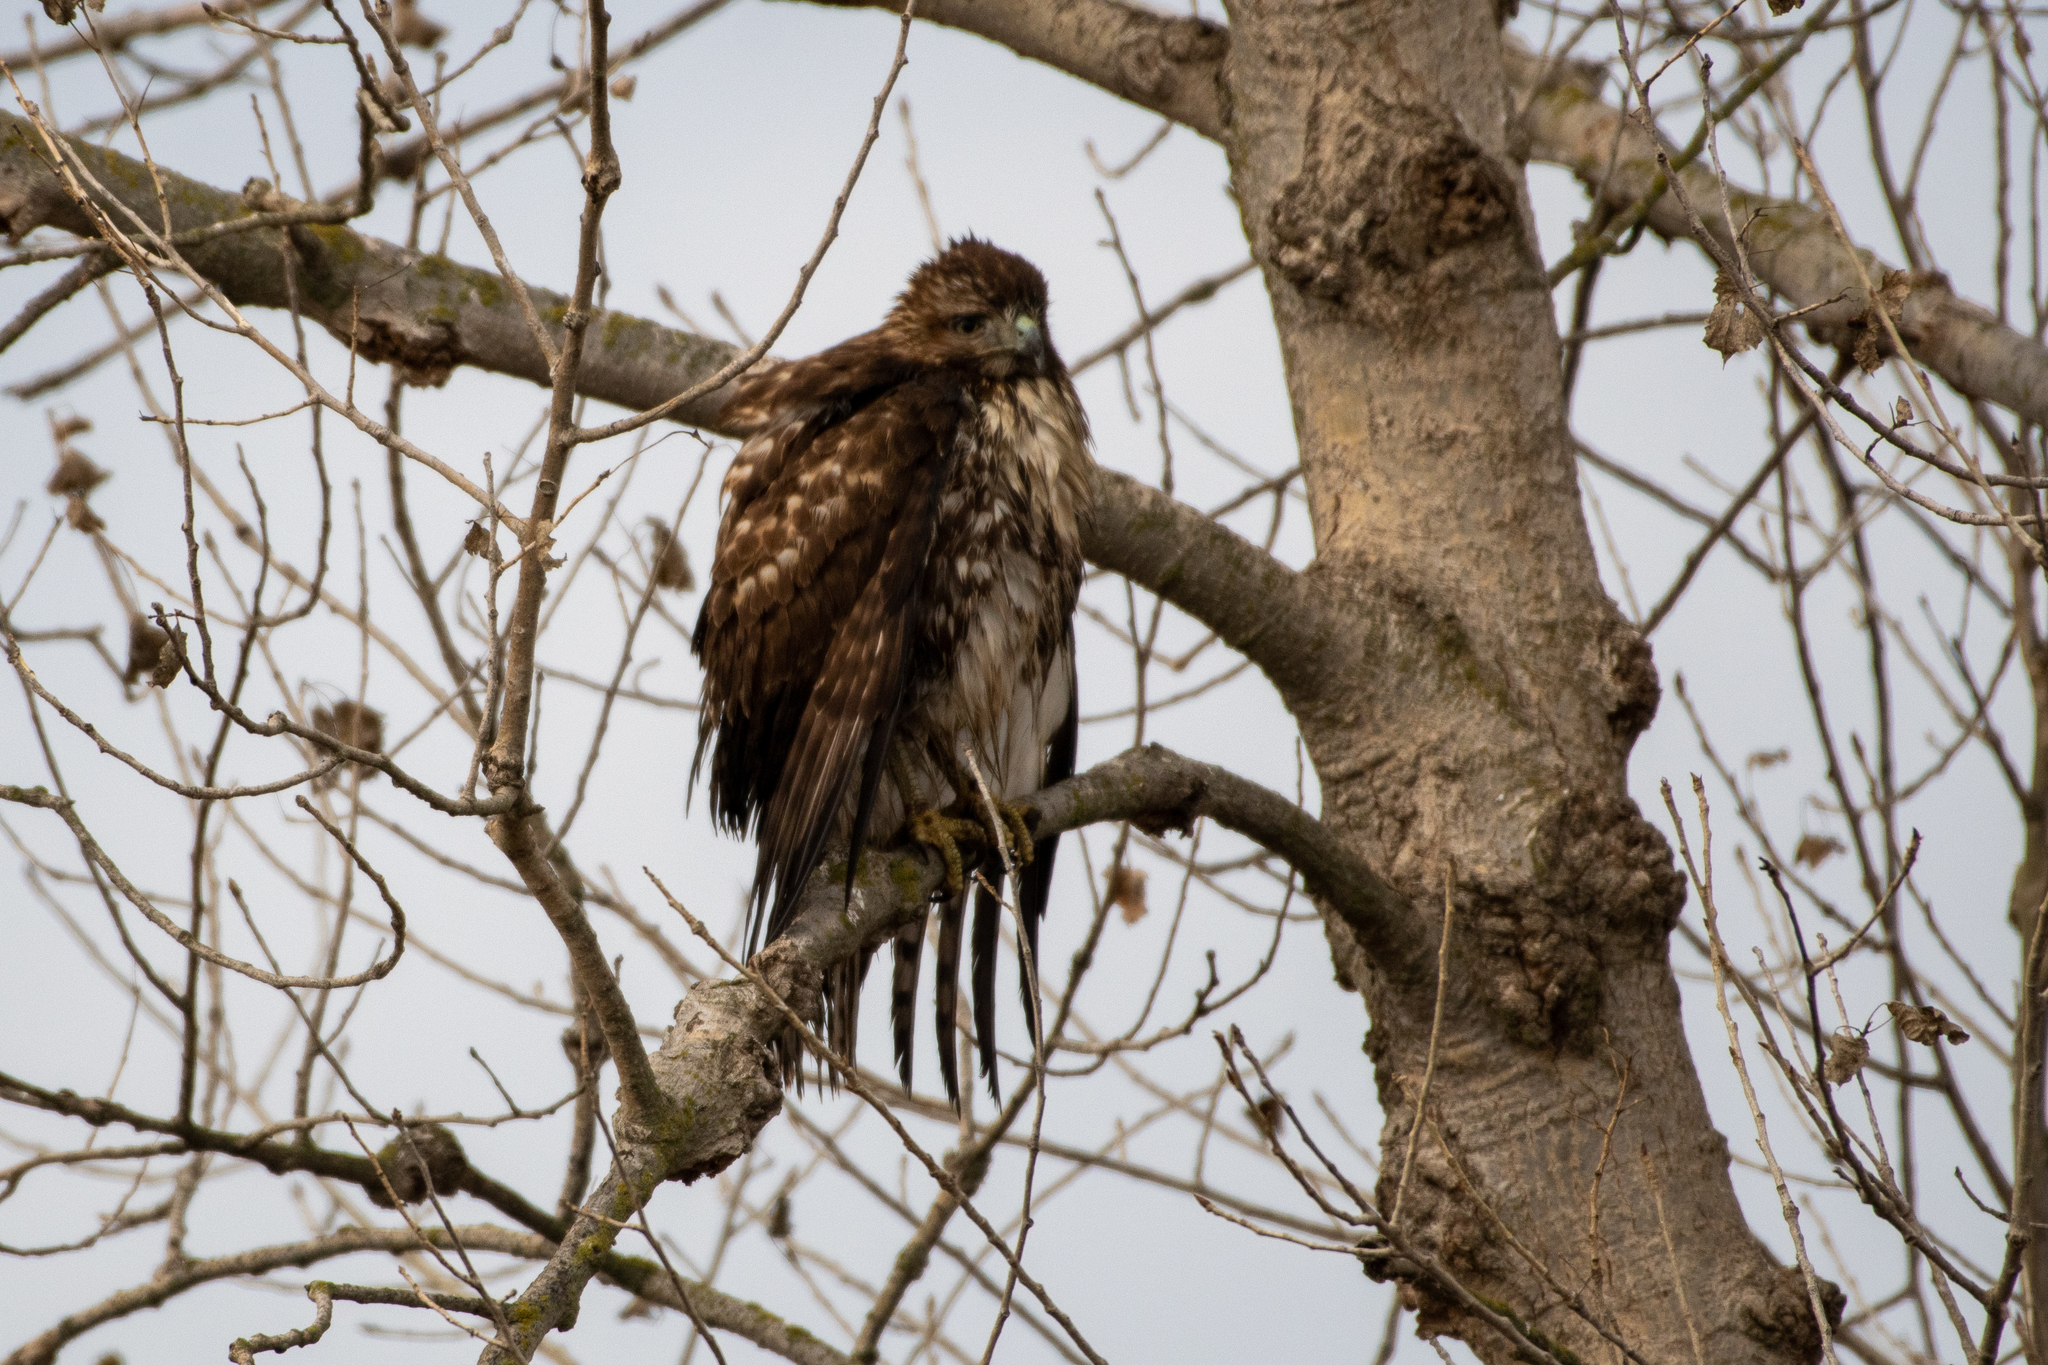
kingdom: Animalia
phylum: Chordata
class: Aves
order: Accipitriformes
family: Accipitridae
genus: Buteo
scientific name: Buteo jamaicensis
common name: Red-tailed hawk
